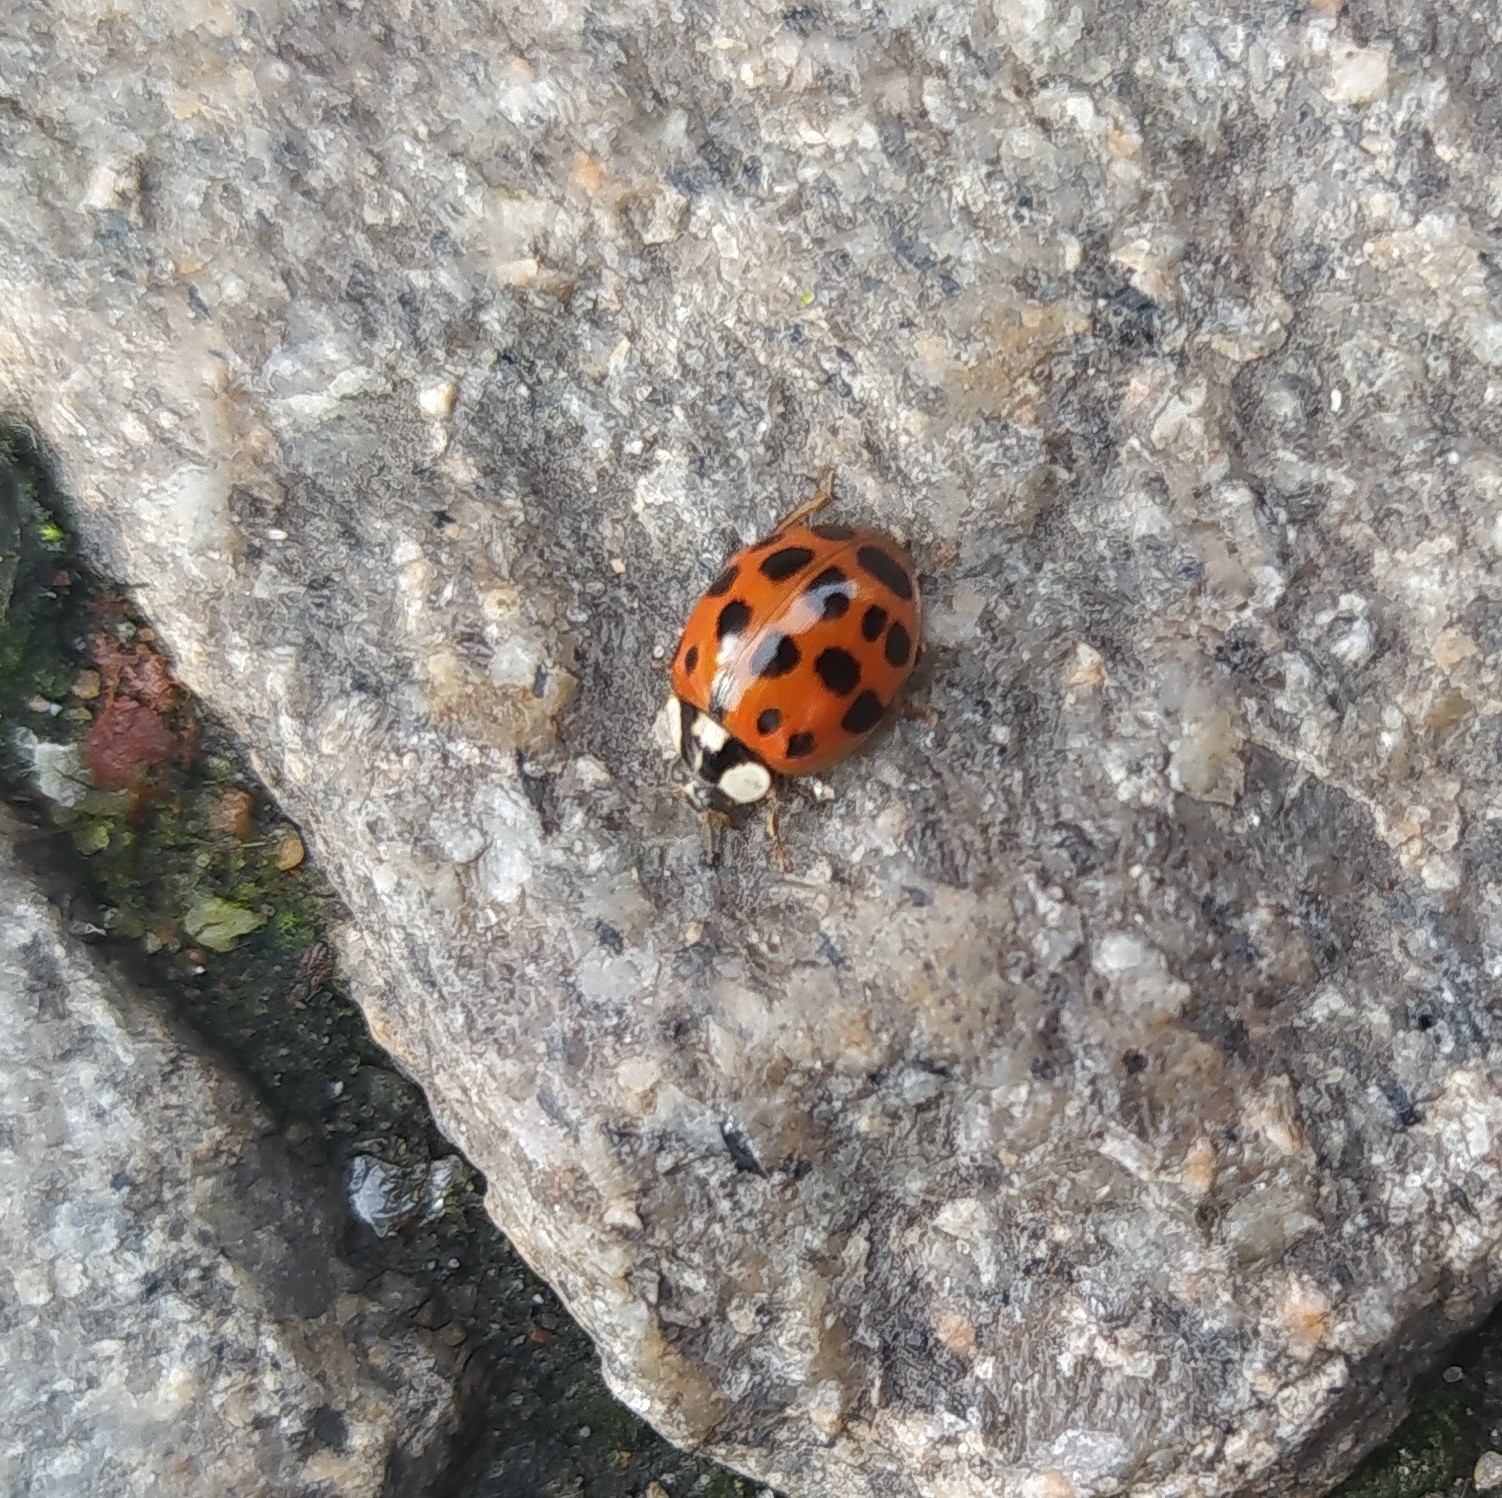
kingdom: Animalia
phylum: Arthropoda
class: Insecta
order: Coleoptera
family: Coccinellidae
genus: Harmonia
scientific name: Harmonia axyridis
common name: Harlequin ladybird
